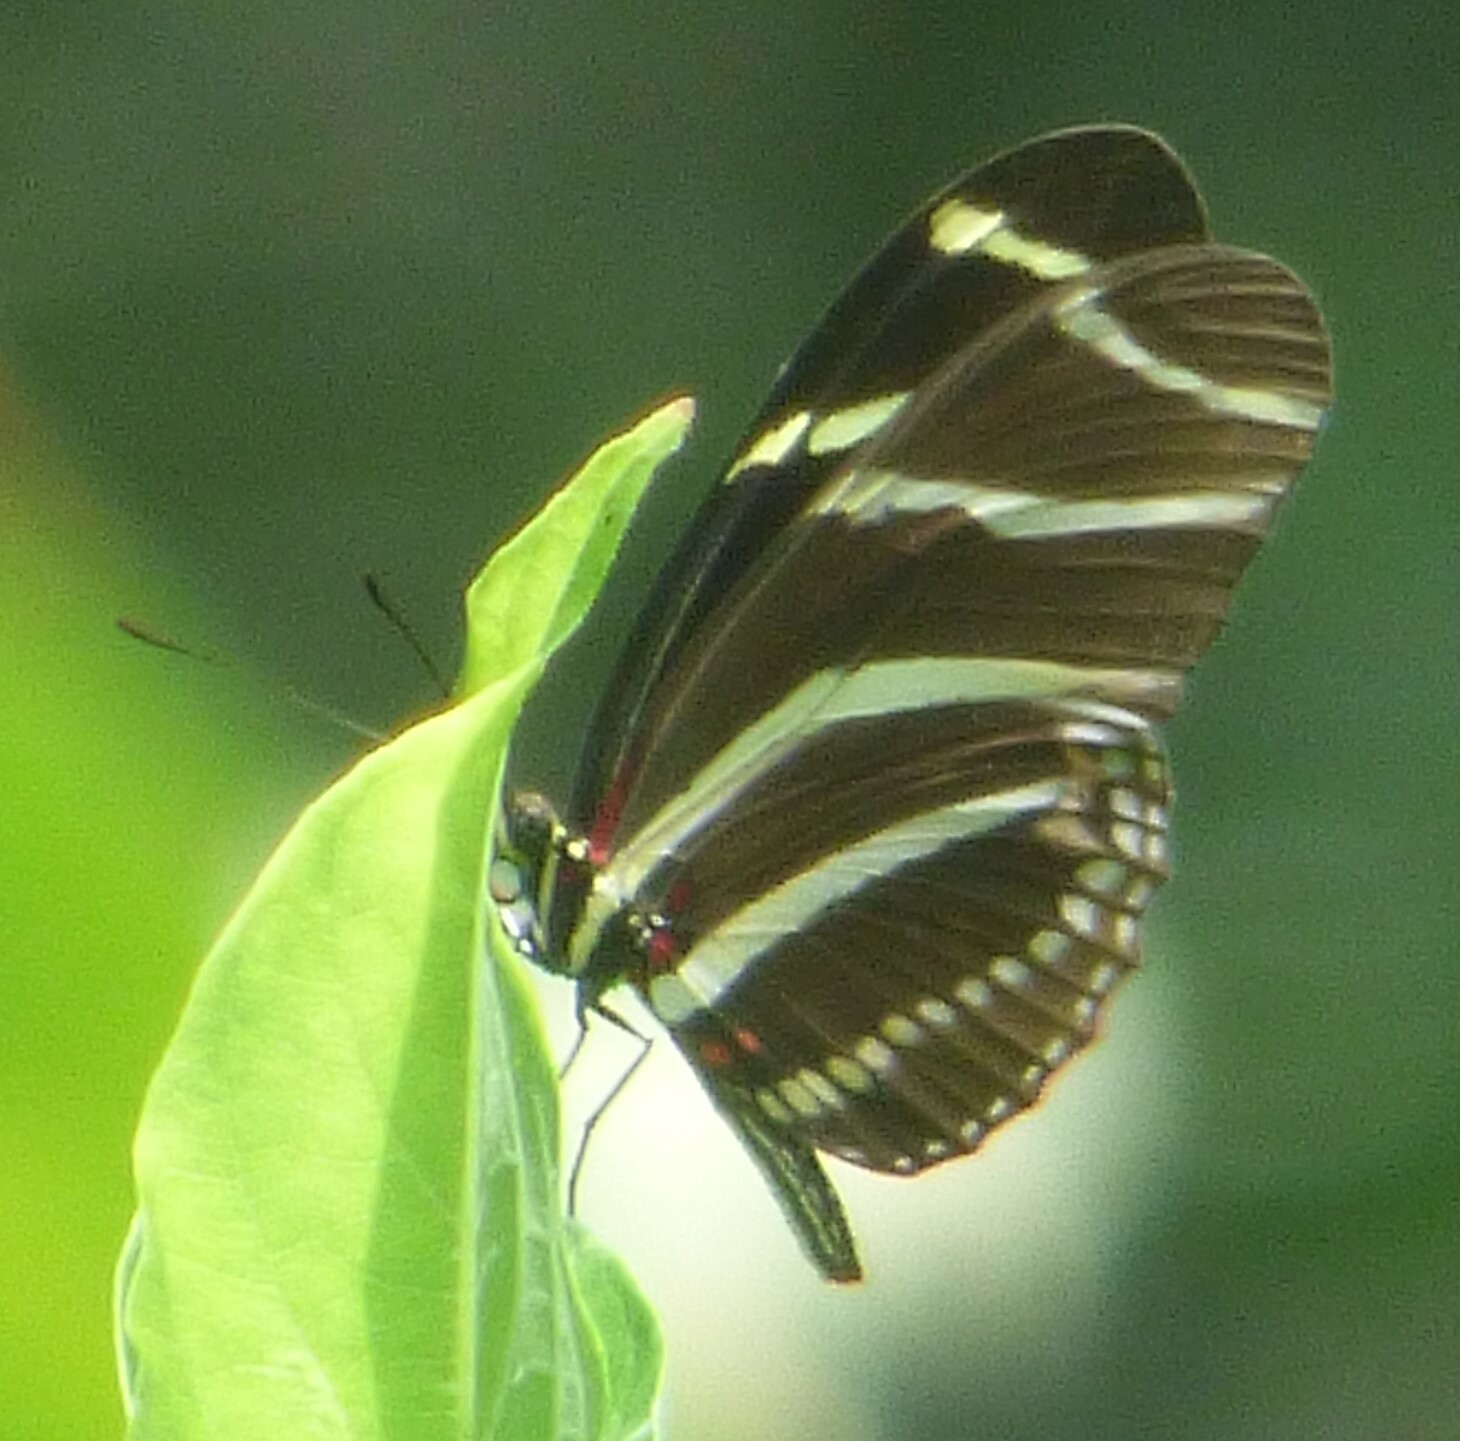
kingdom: Animalia
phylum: Arthropoda
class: Insecta
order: Lepidoptera
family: Nymphalidae
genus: Heliconius
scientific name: Heliconius charithonia
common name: Zebra long wing
